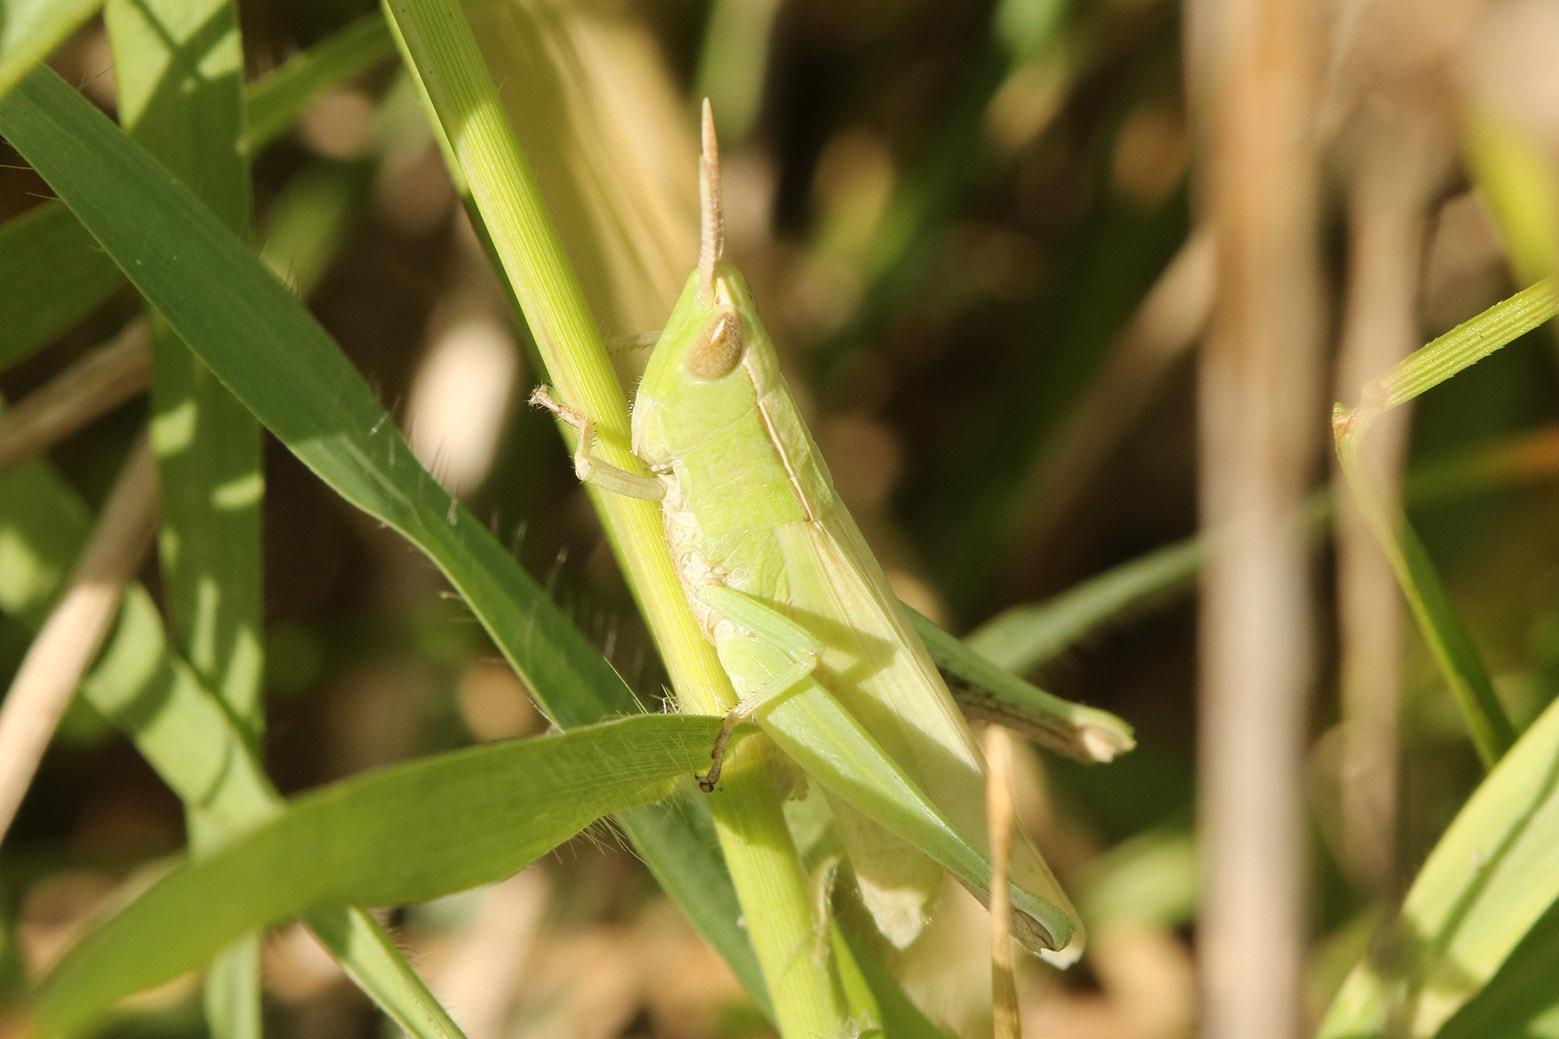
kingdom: Animalia
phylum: Arthropoda
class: Insecta
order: Orthoptera
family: Acrididae
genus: Laplatacris
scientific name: Laplatacris dispar
